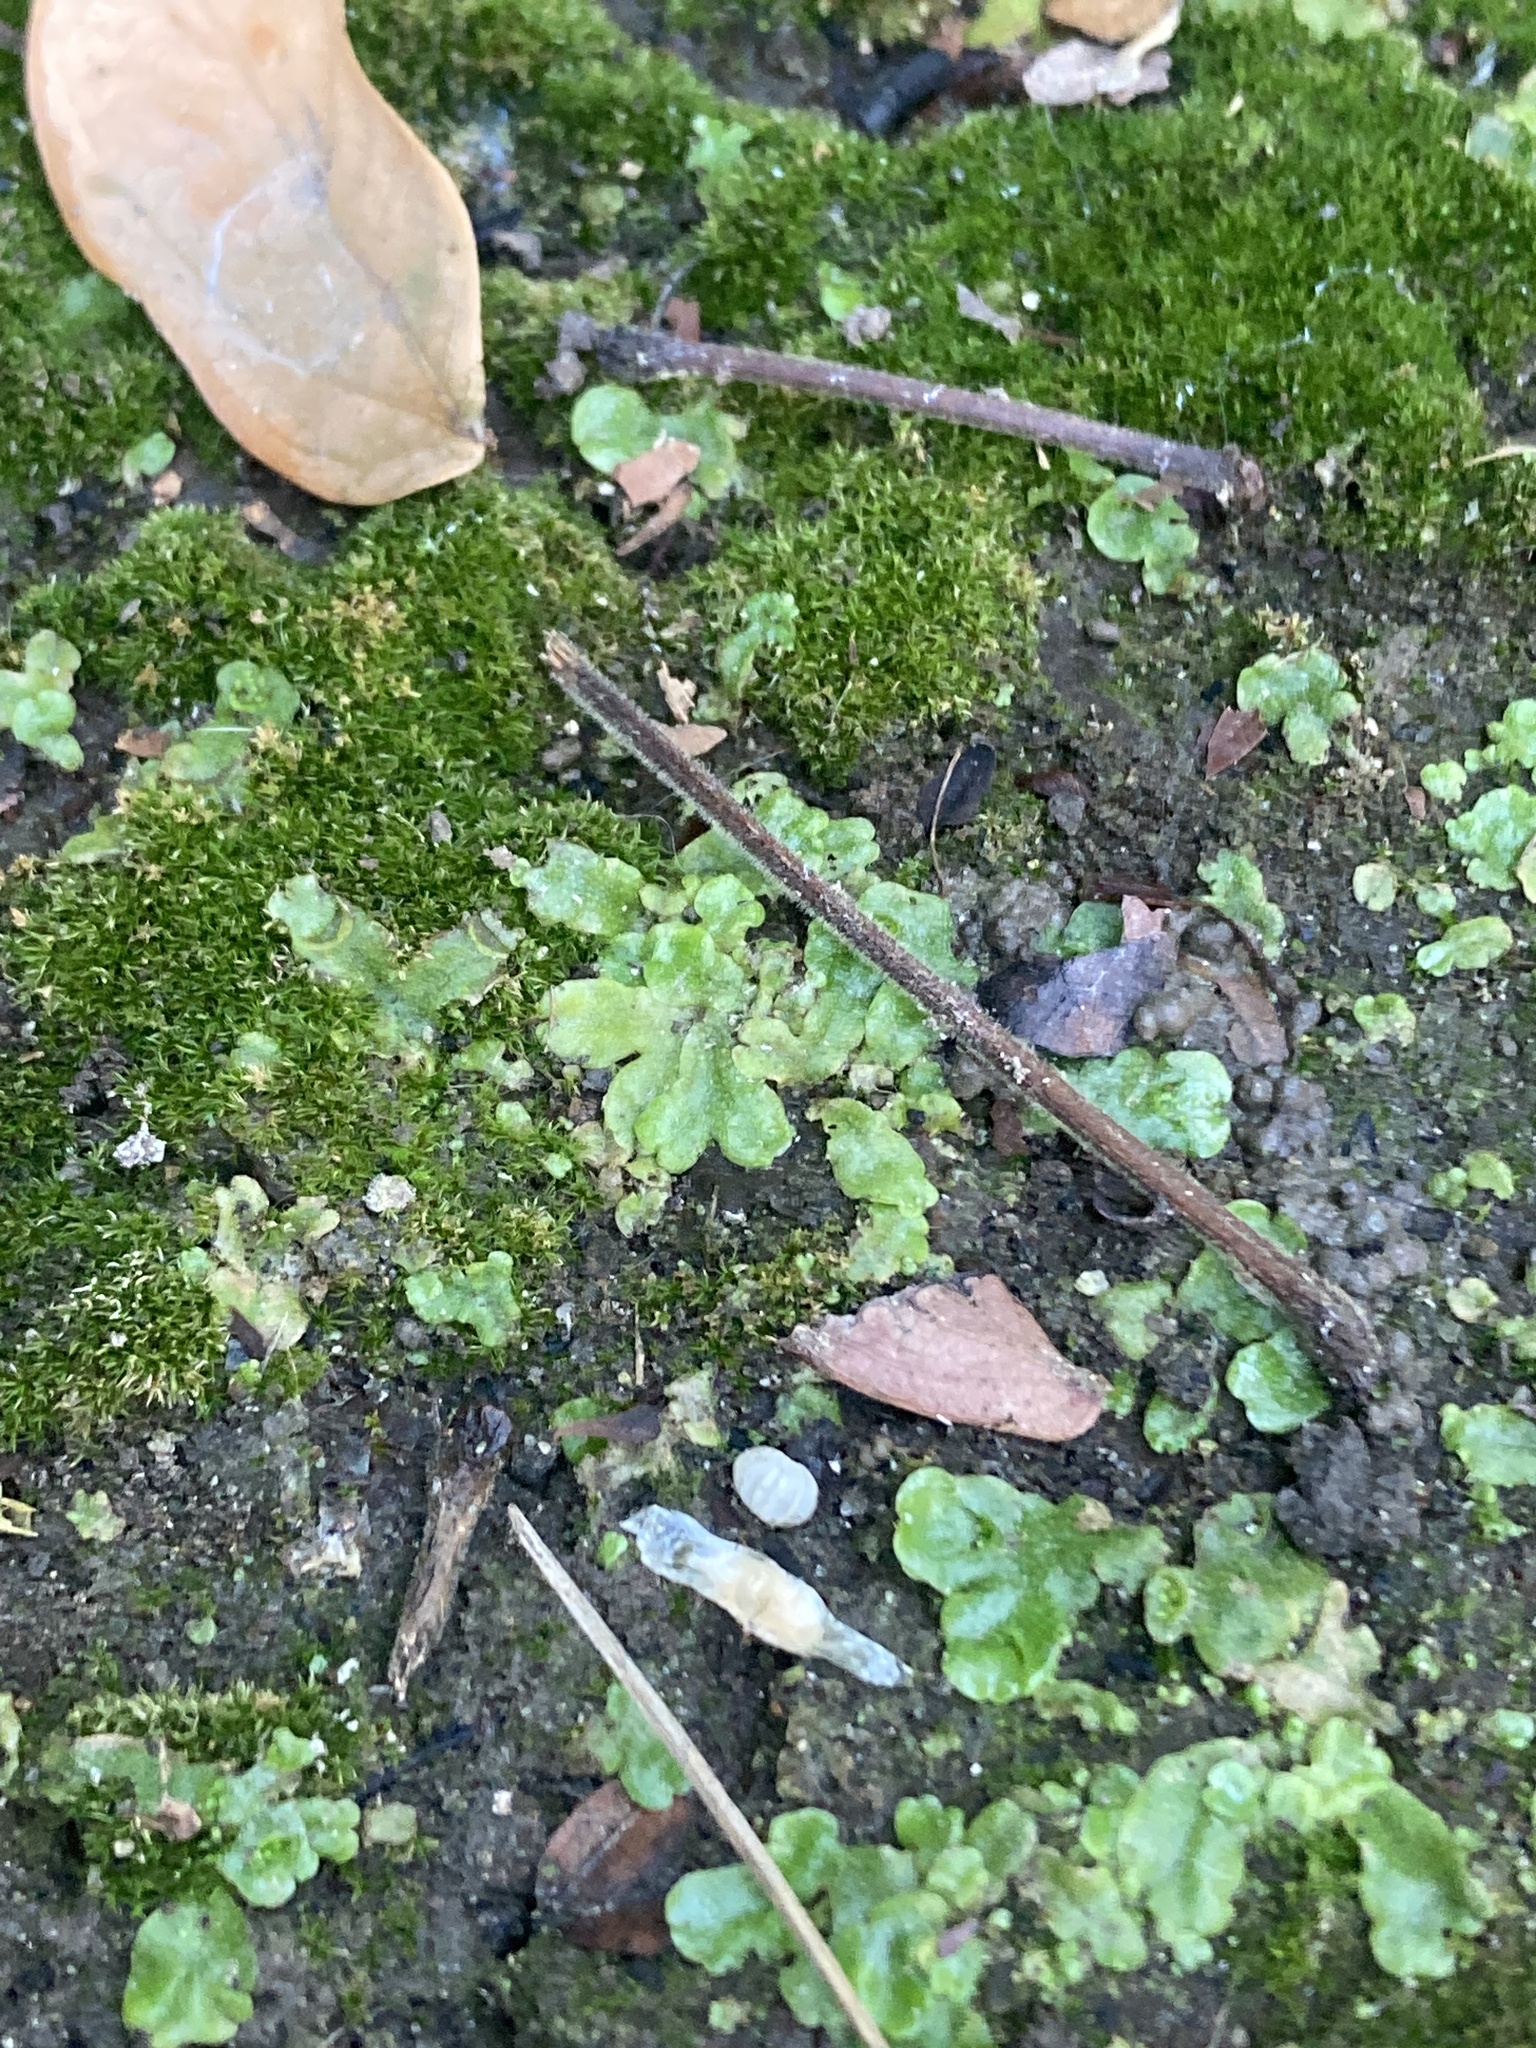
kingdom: Plantae
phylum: Marchantiophyta
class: Marchantiopsida
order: Lunulariales
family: Lunulariaceae
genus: Lunularia
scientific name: Lunularia cruciata
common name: Crescent-cup liverwort
